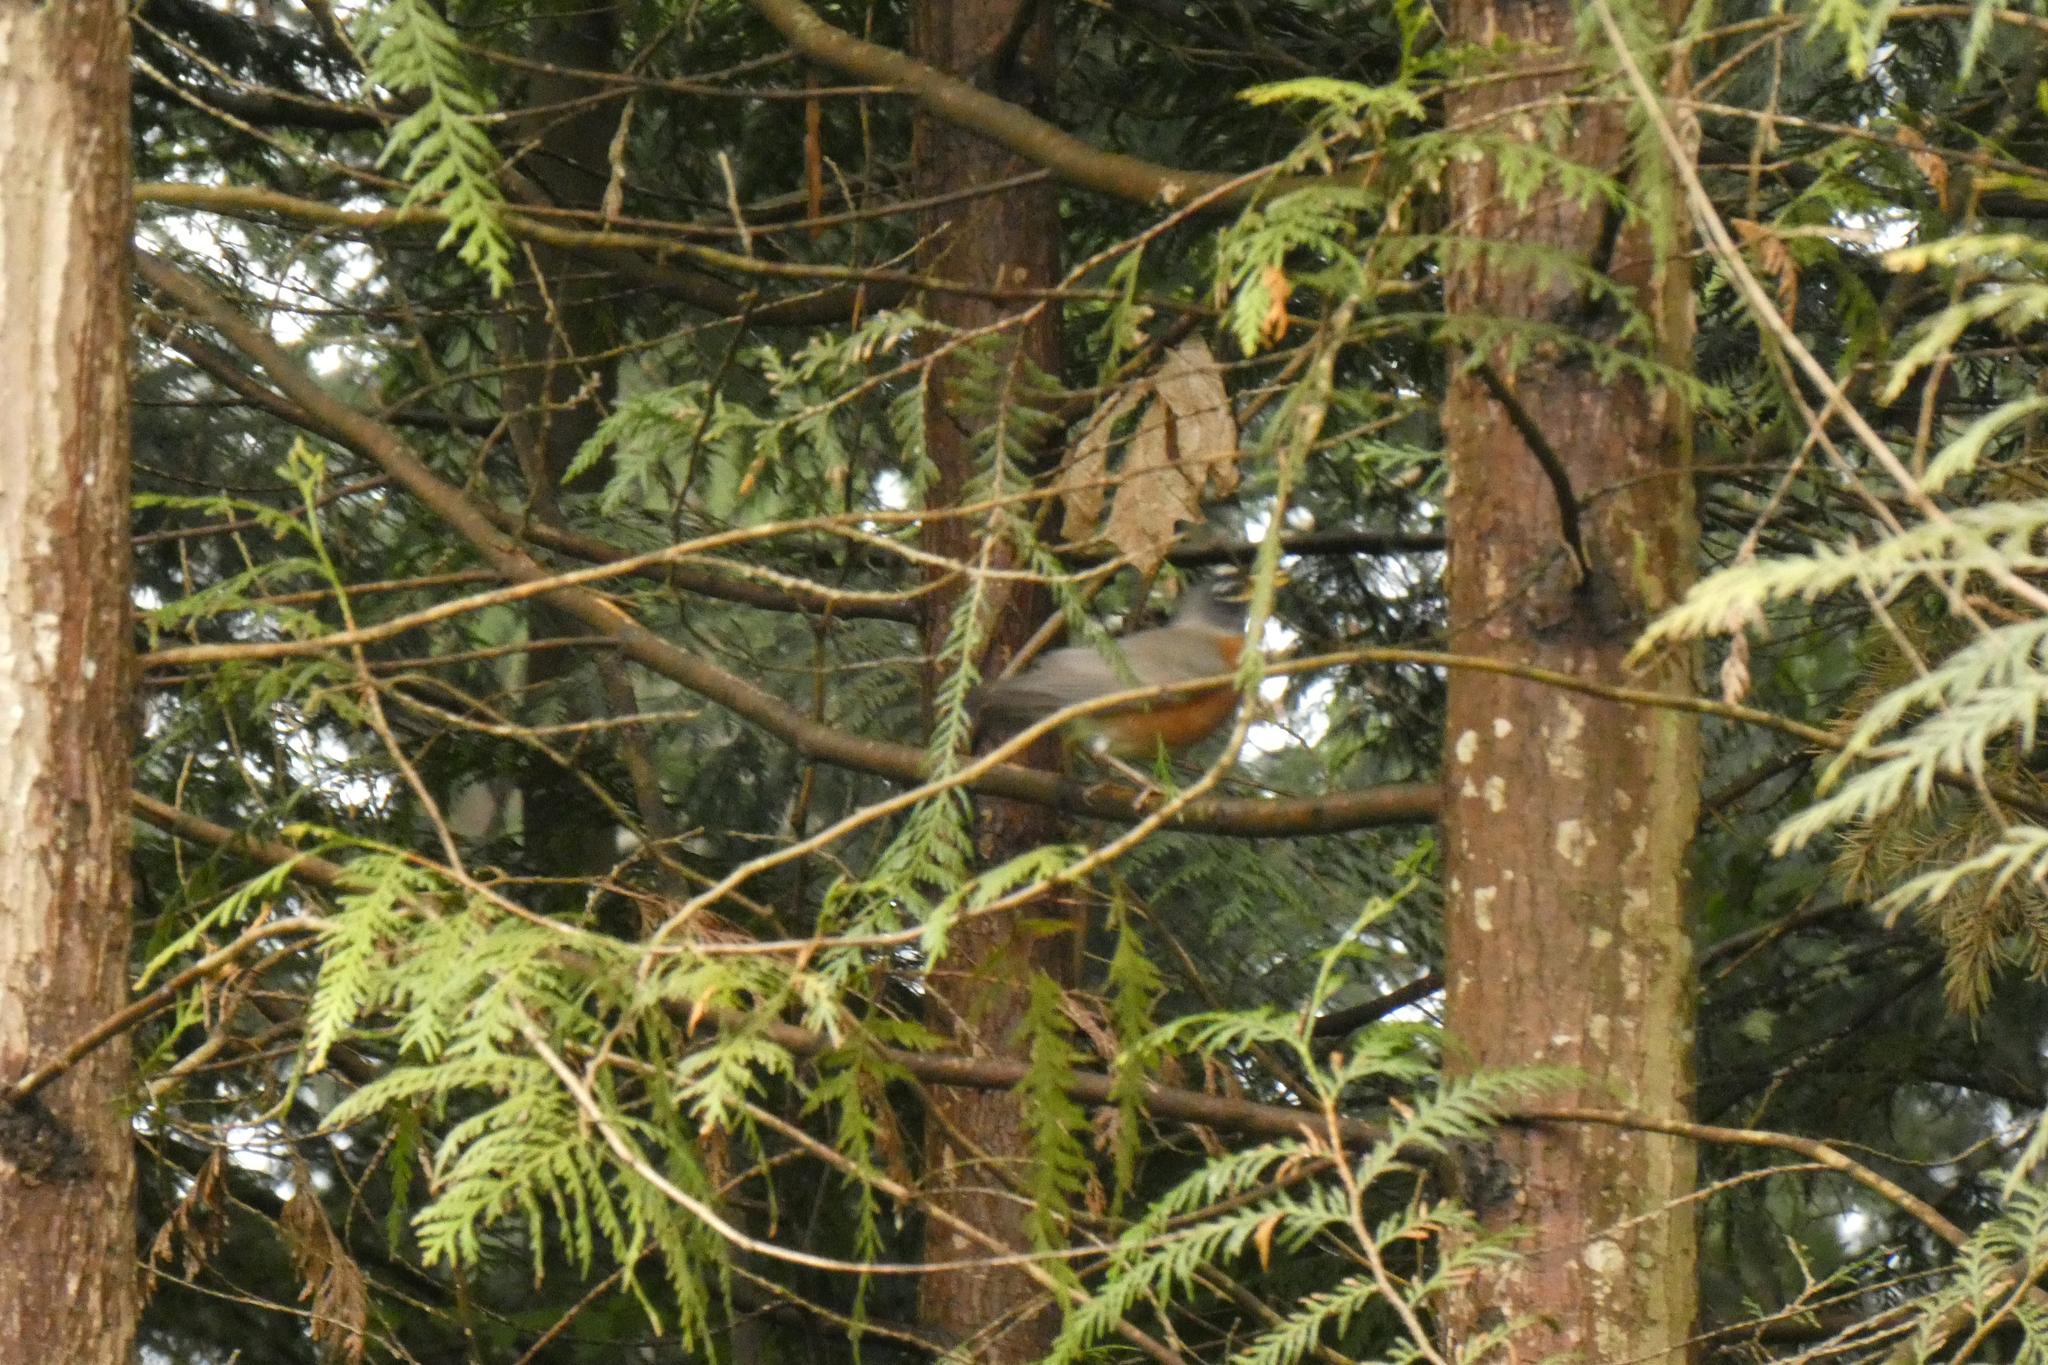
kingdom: Animalia
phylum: Chordata
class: Aves
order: Passeriformes
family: Turdidae
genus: Turdus
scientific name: Turdus migratorius
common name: American robin
